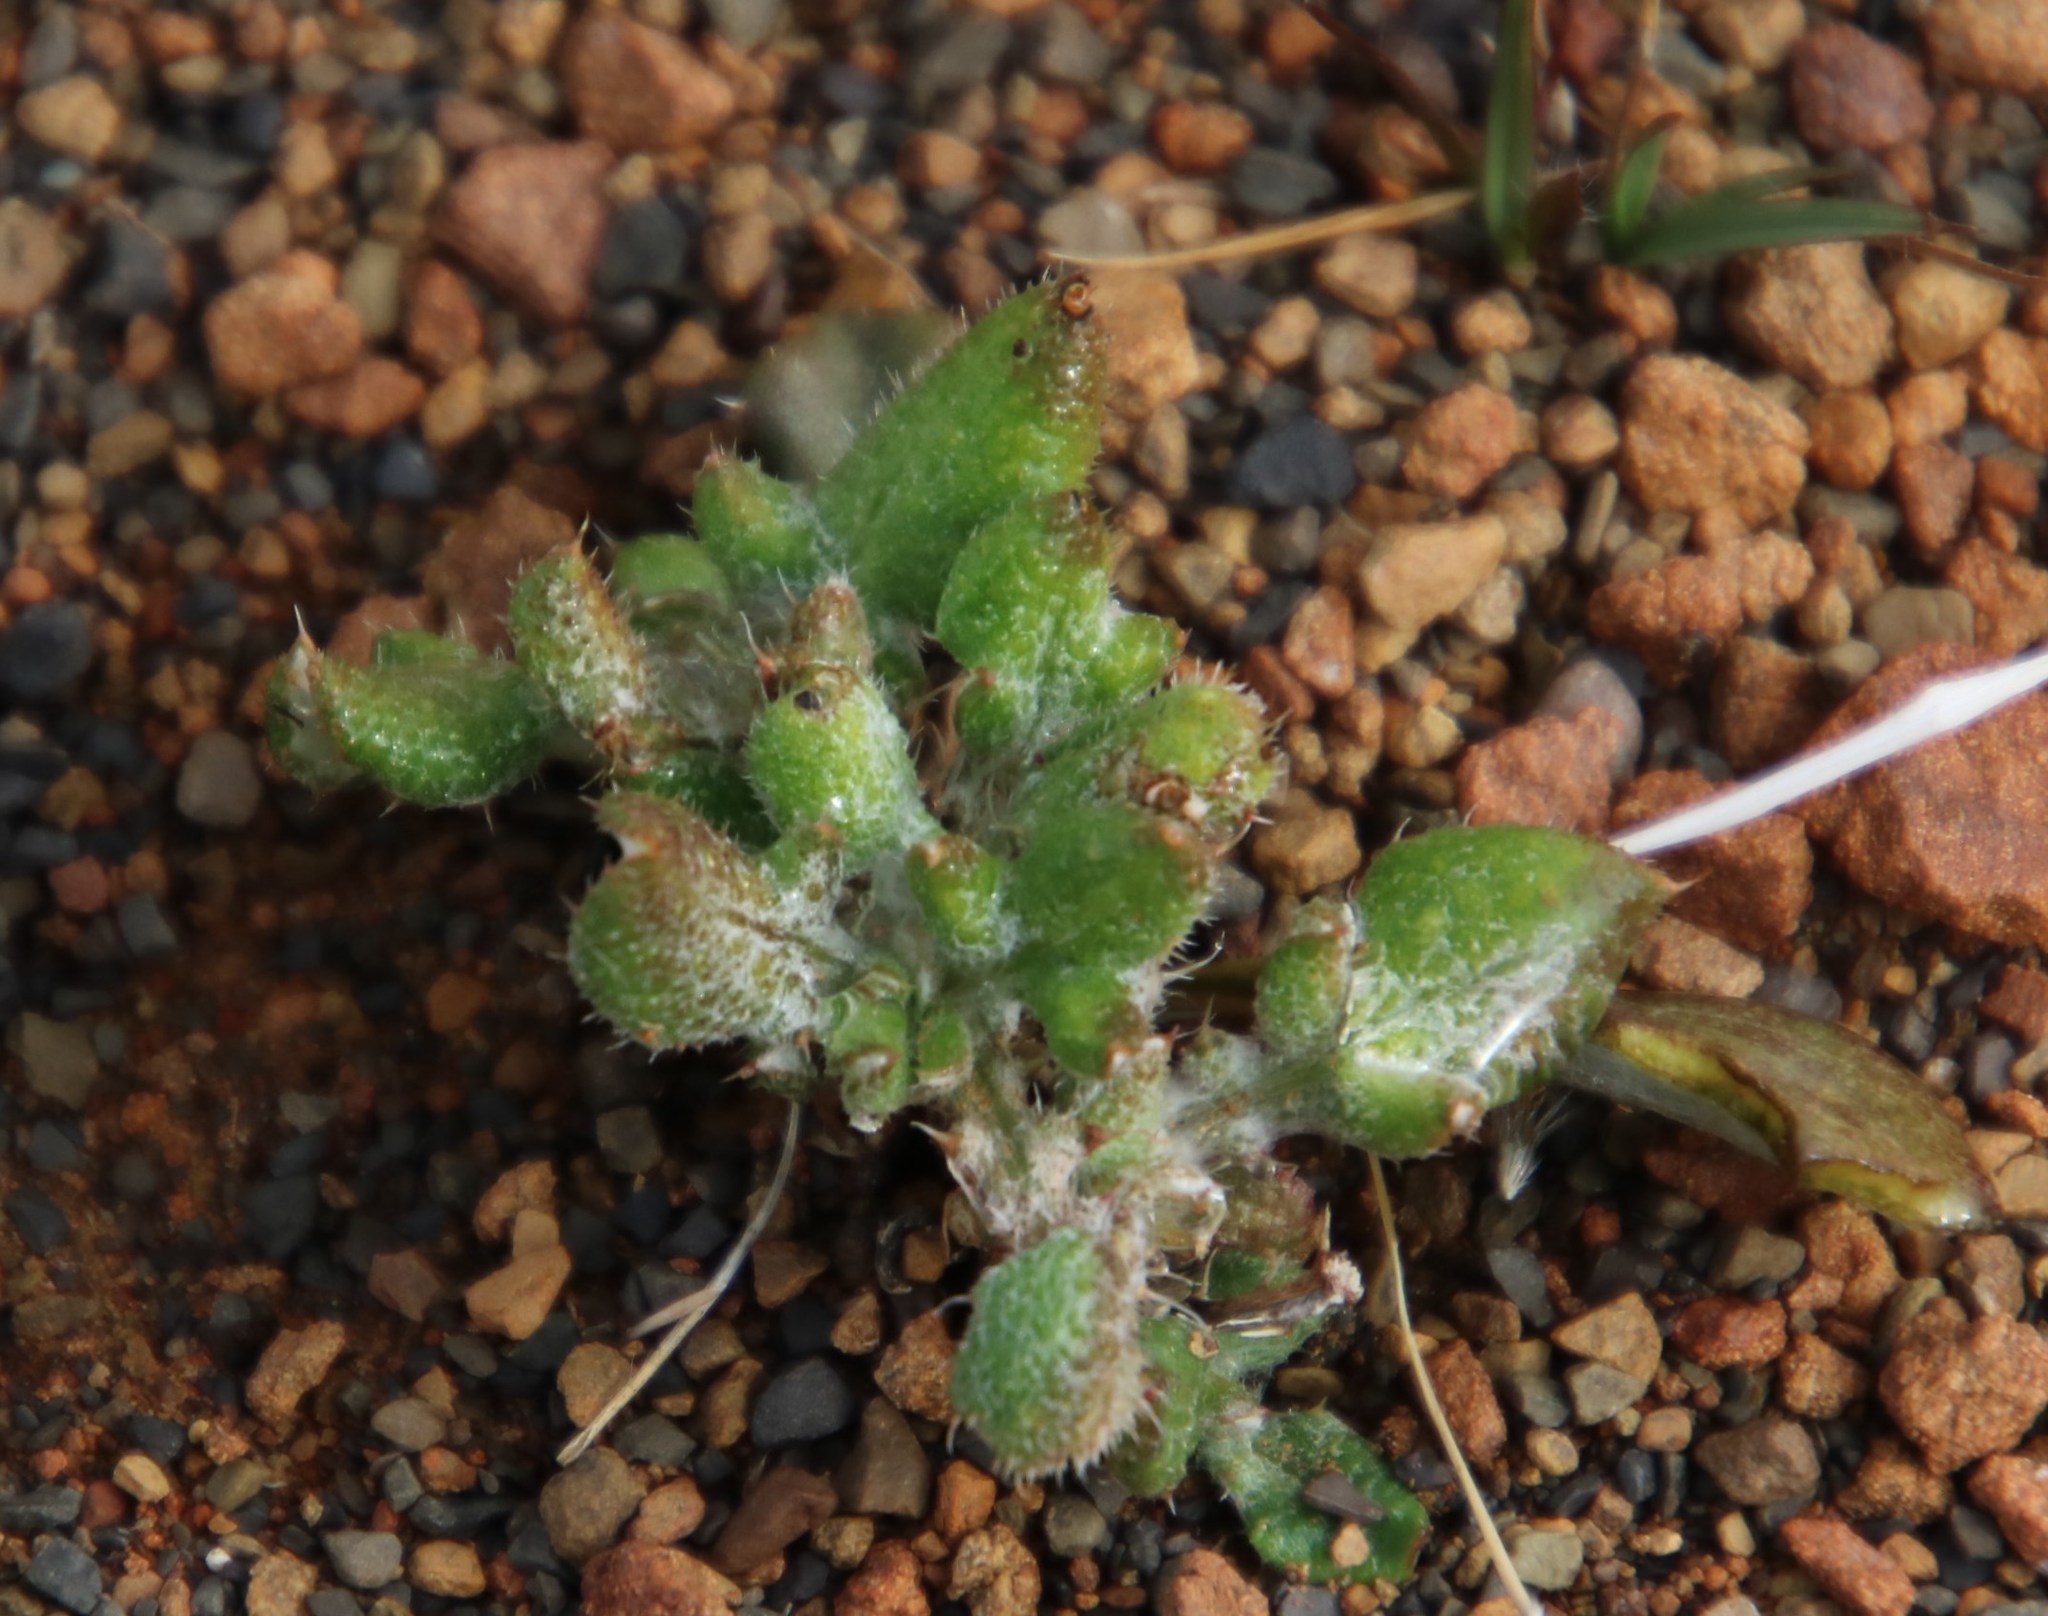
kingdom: Plantae
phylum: Tracheophyta
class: Magnoliopsida
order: Asterales
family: Asteraceae
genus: Gazania
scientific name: Gazania heterochaeta
